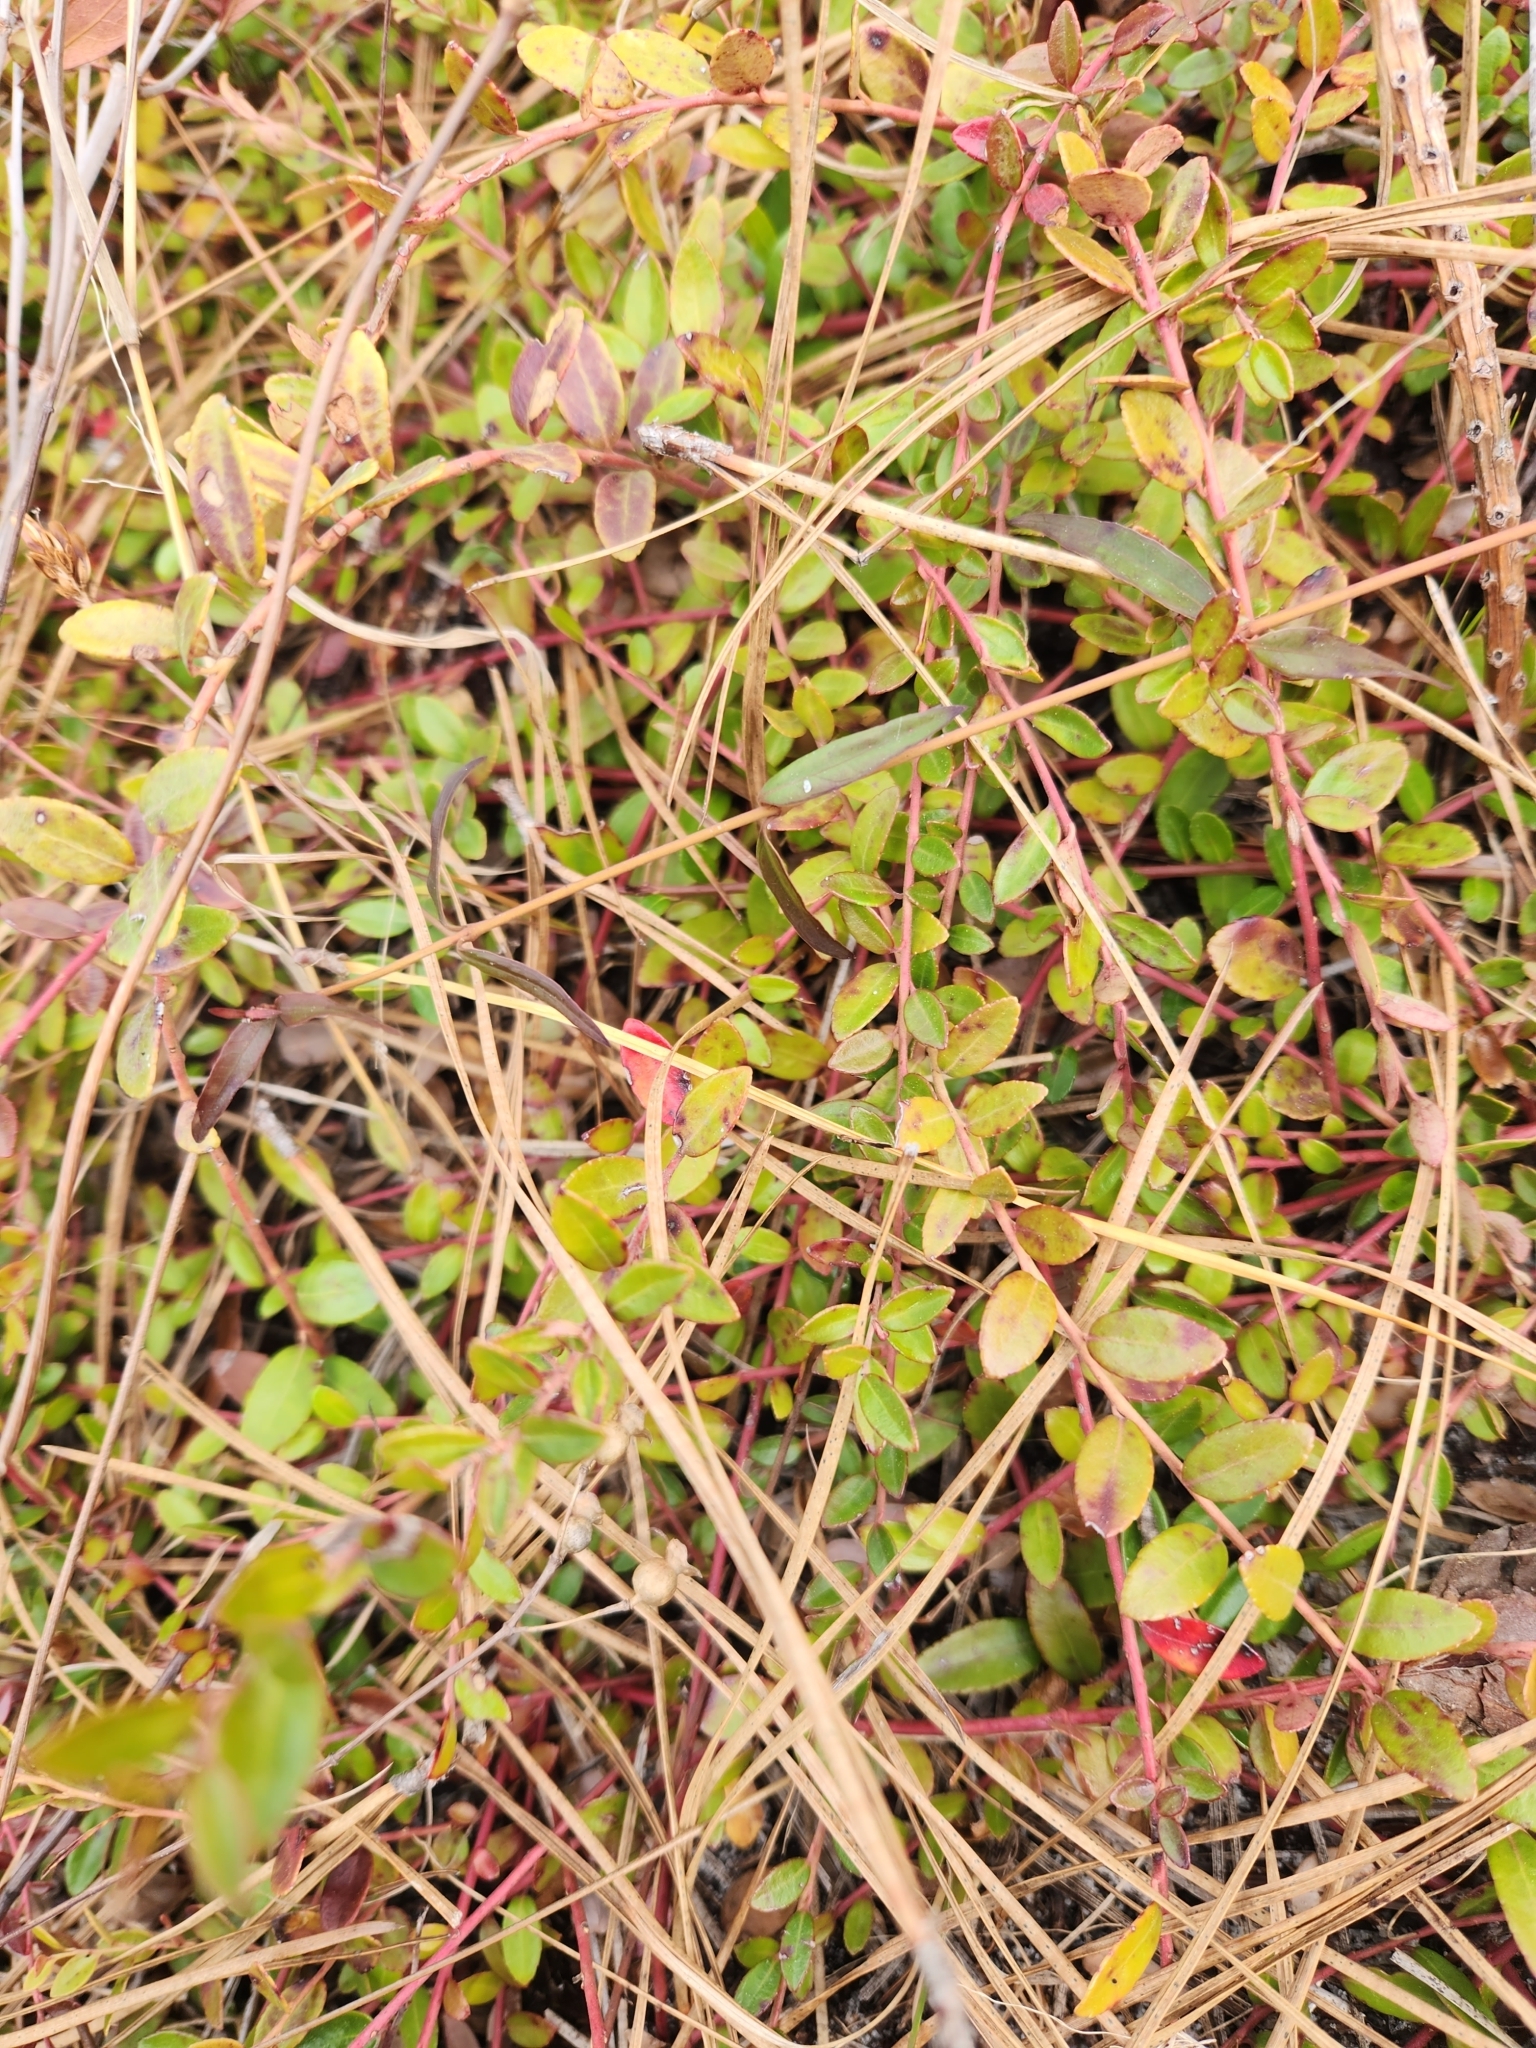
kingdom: Plantae
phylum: Tracheophyta
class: Magnoliopsida
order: Ericales
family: Ericaceae
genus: Vaccinium
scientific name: Vaccinium crassifolium
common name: Creeping blueberry
